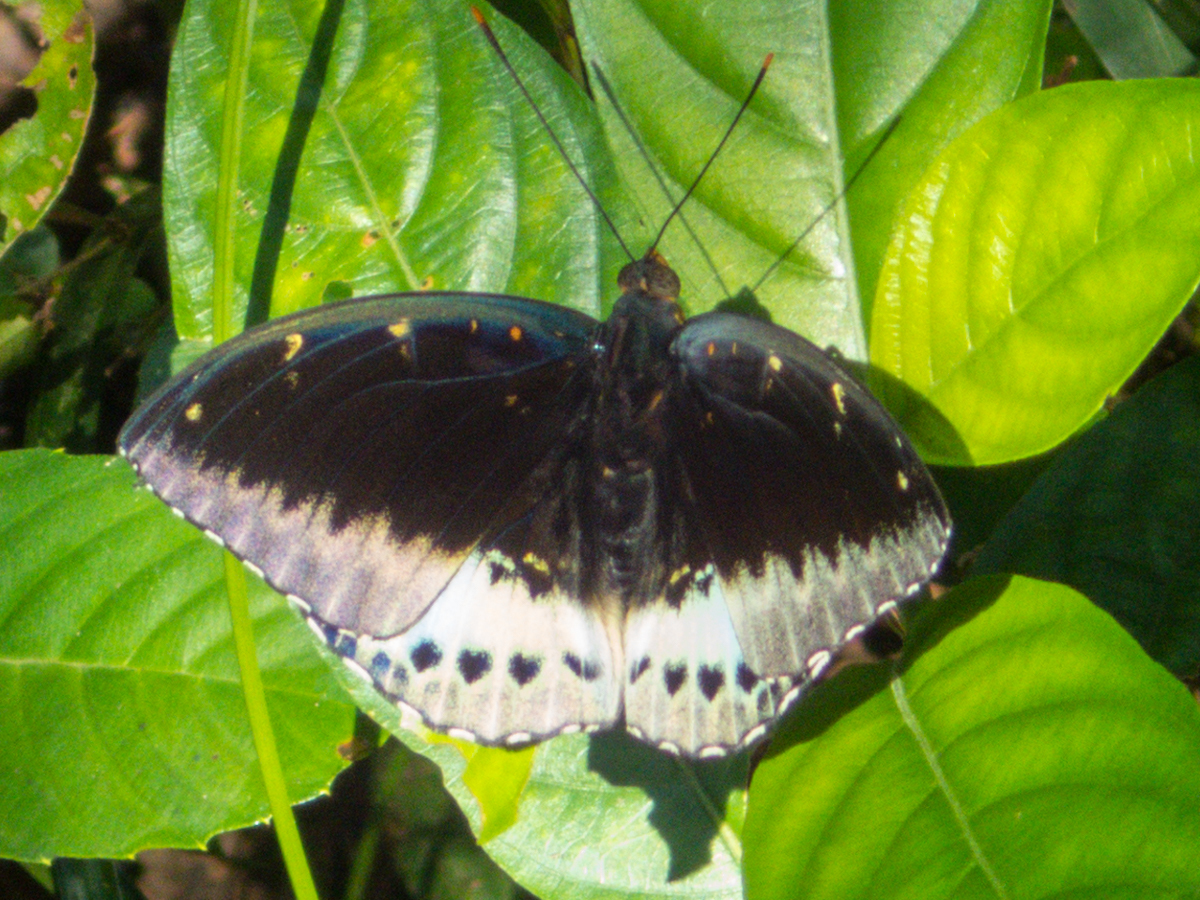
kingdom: Animalia
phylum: Arthropoda
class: Insecta
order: Lepidoptera
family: Nymphalidae
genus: Lexias
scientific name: Lexias pardalis
